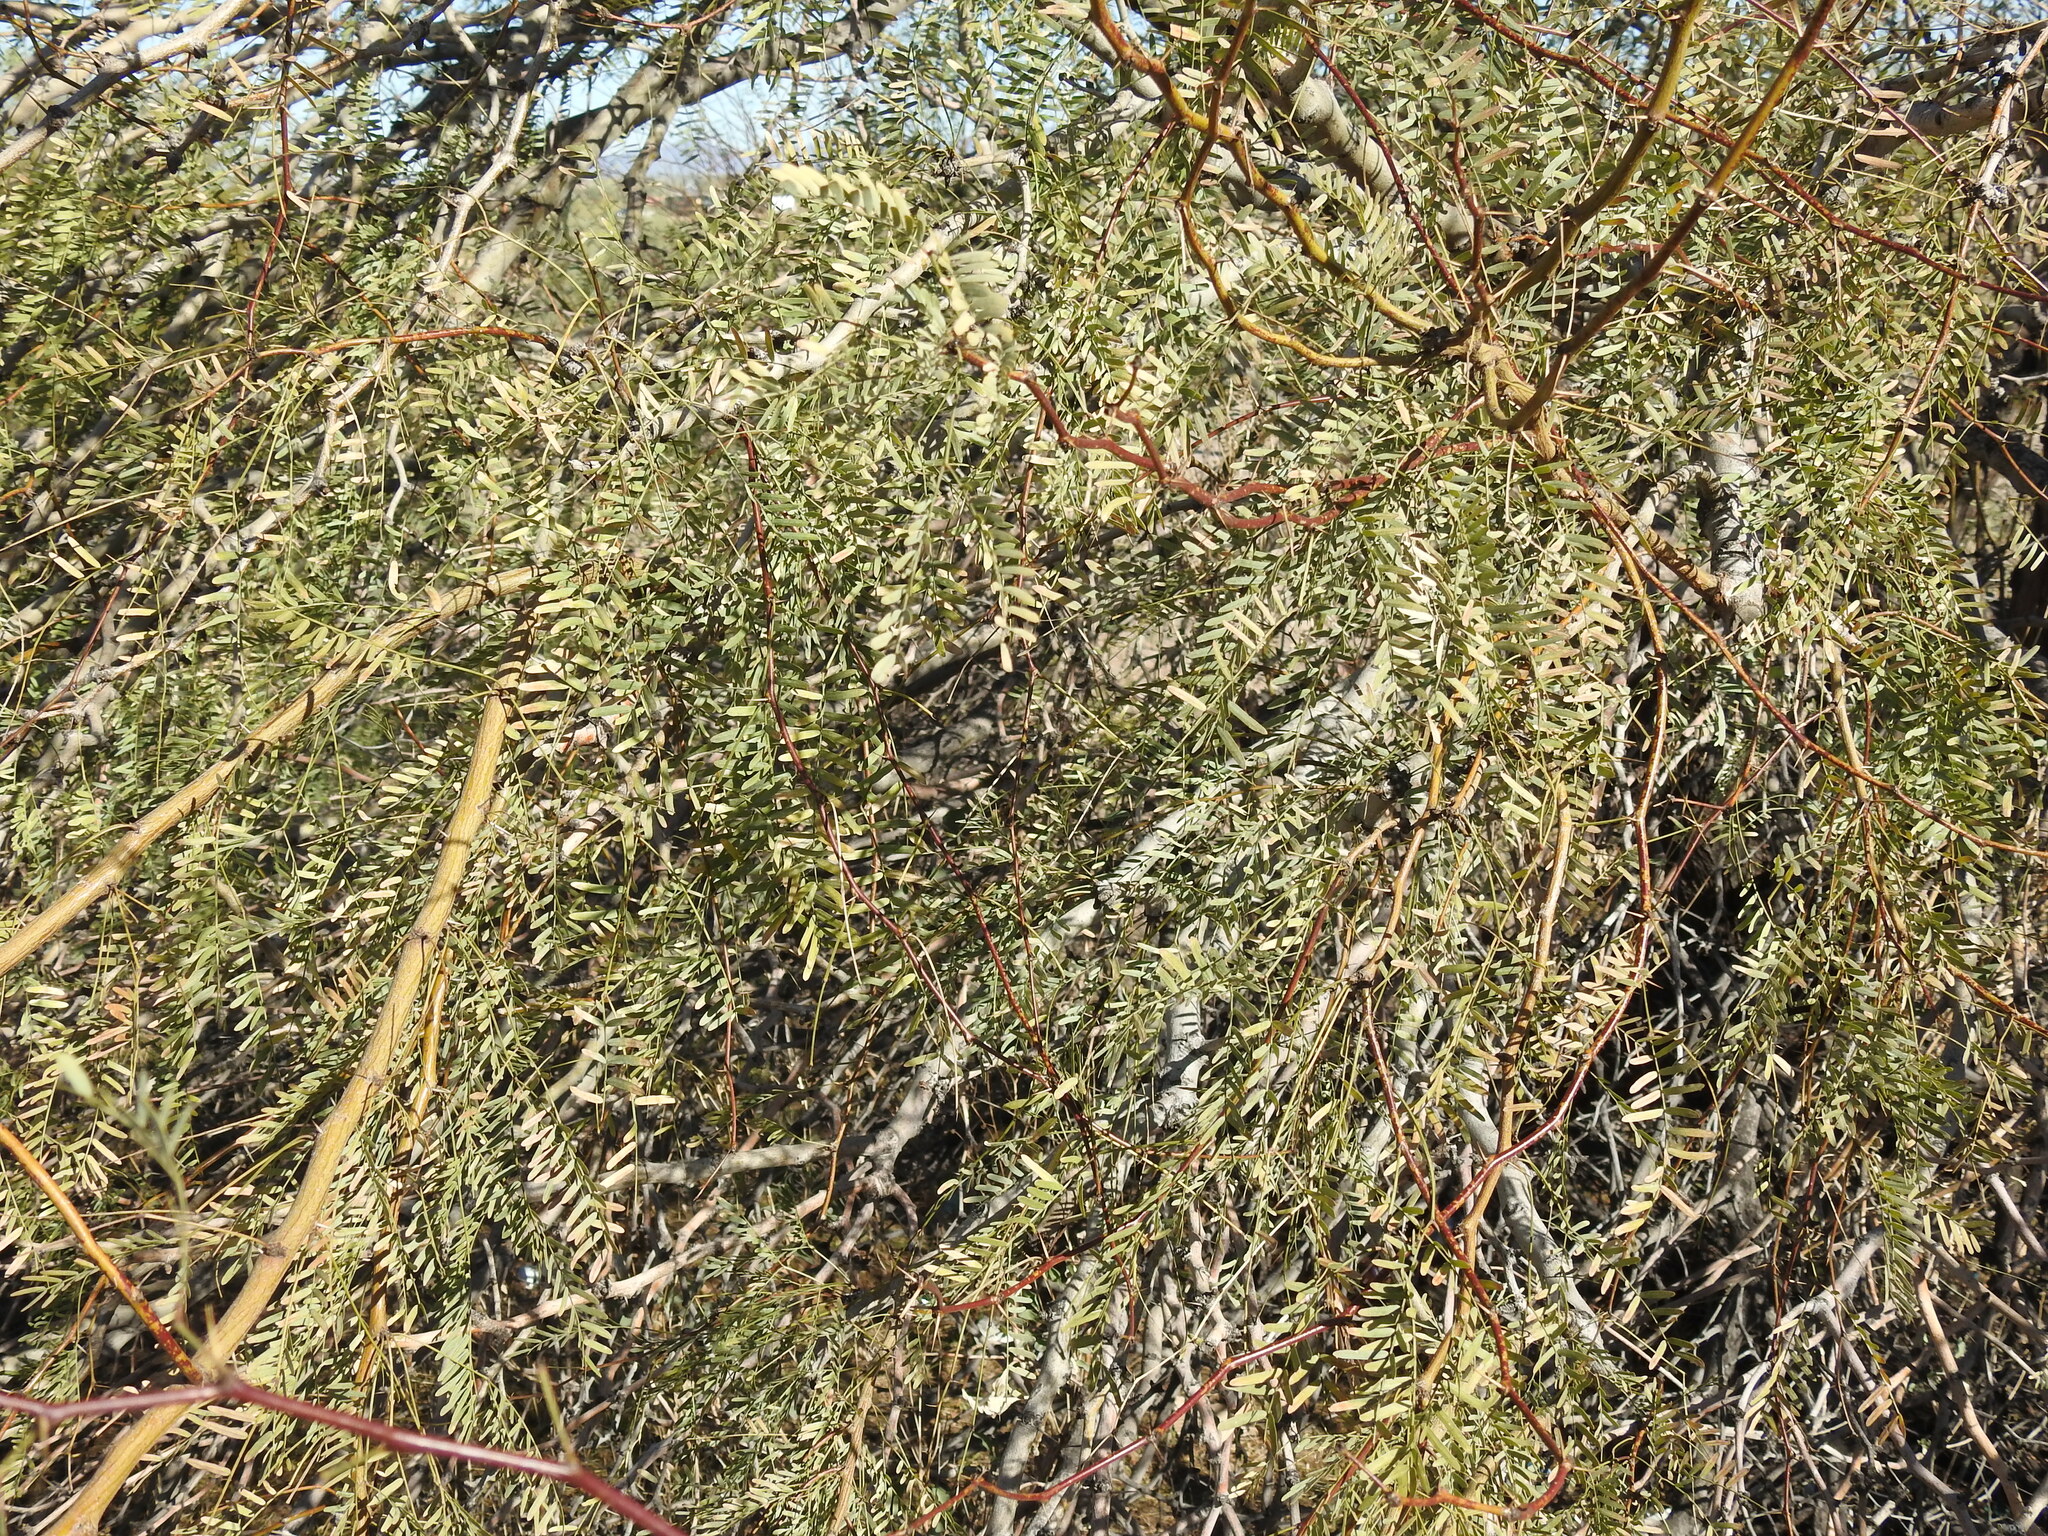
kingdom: Plantae
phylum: Tracheophyta
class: Magnoliopsida
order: Fabales
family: Fabaceae
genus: Prosopis
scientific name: Prosopis pubescens
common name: Screw-bean
